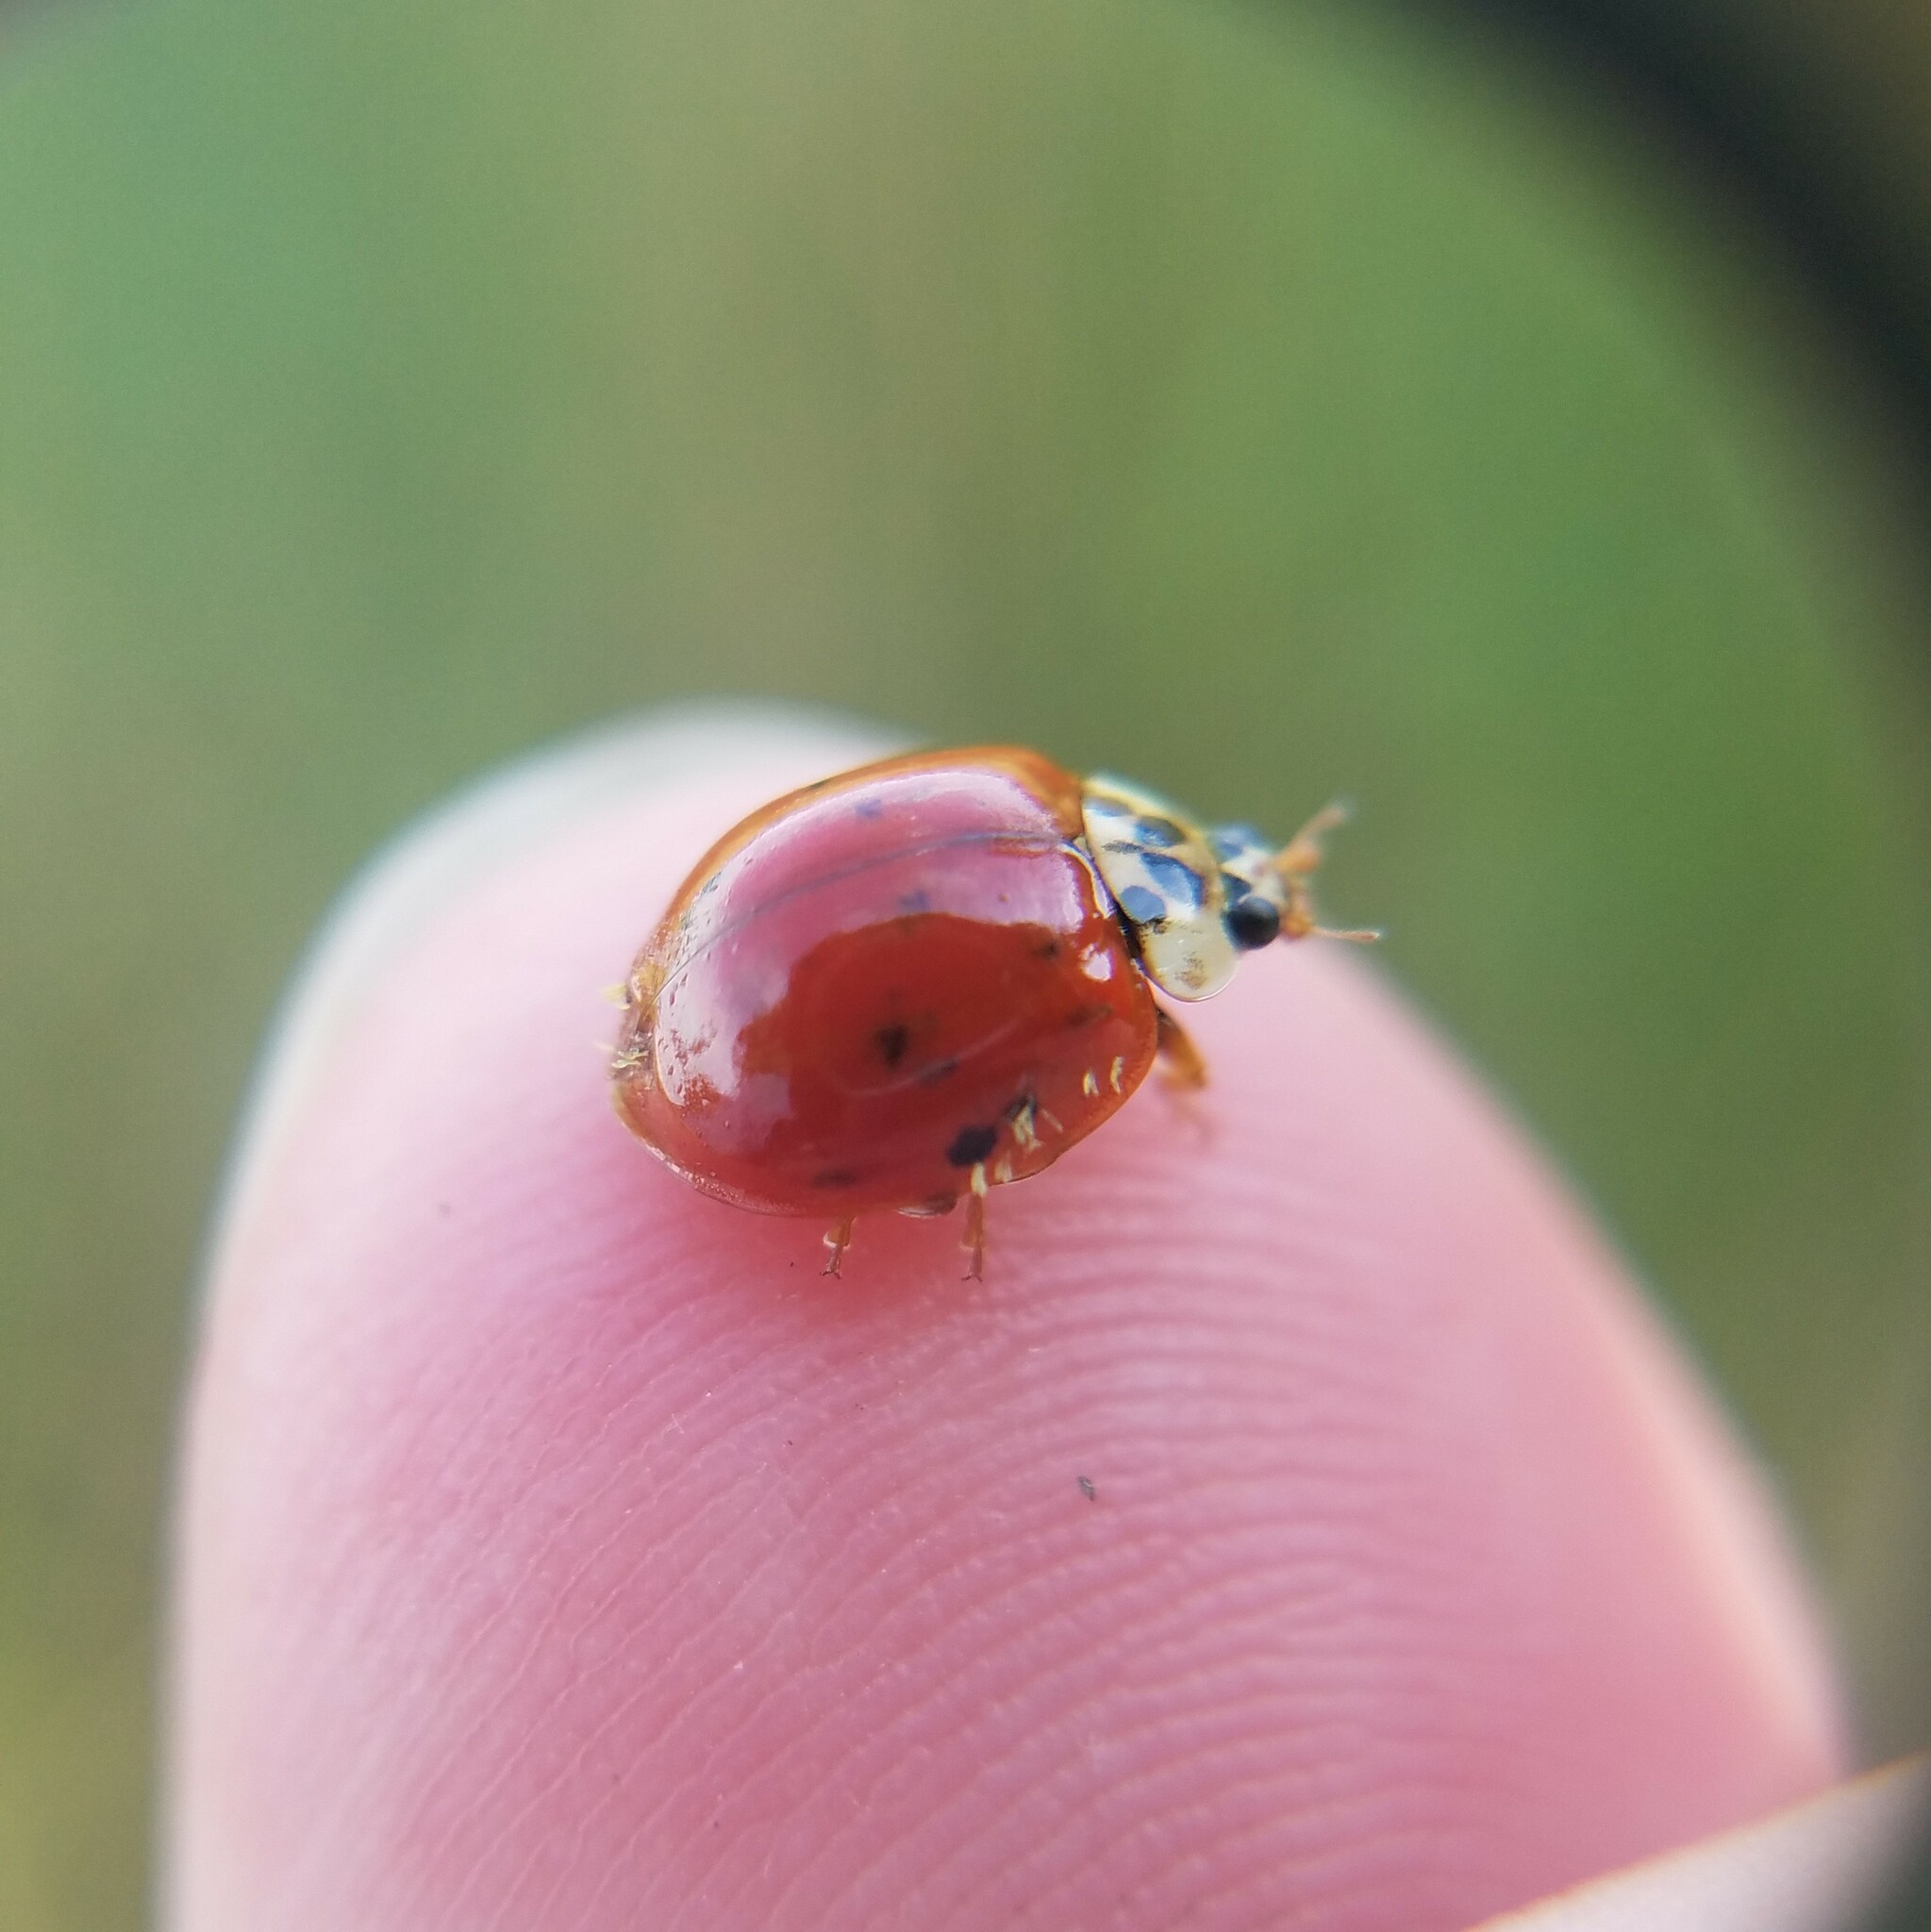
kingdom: Animalia
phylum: Arthropoda
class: Insecta
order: Coleoptera
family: Coccinellidae
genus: Harmonia
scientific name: Harmonia axyridis
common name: Harlequin ladybird
